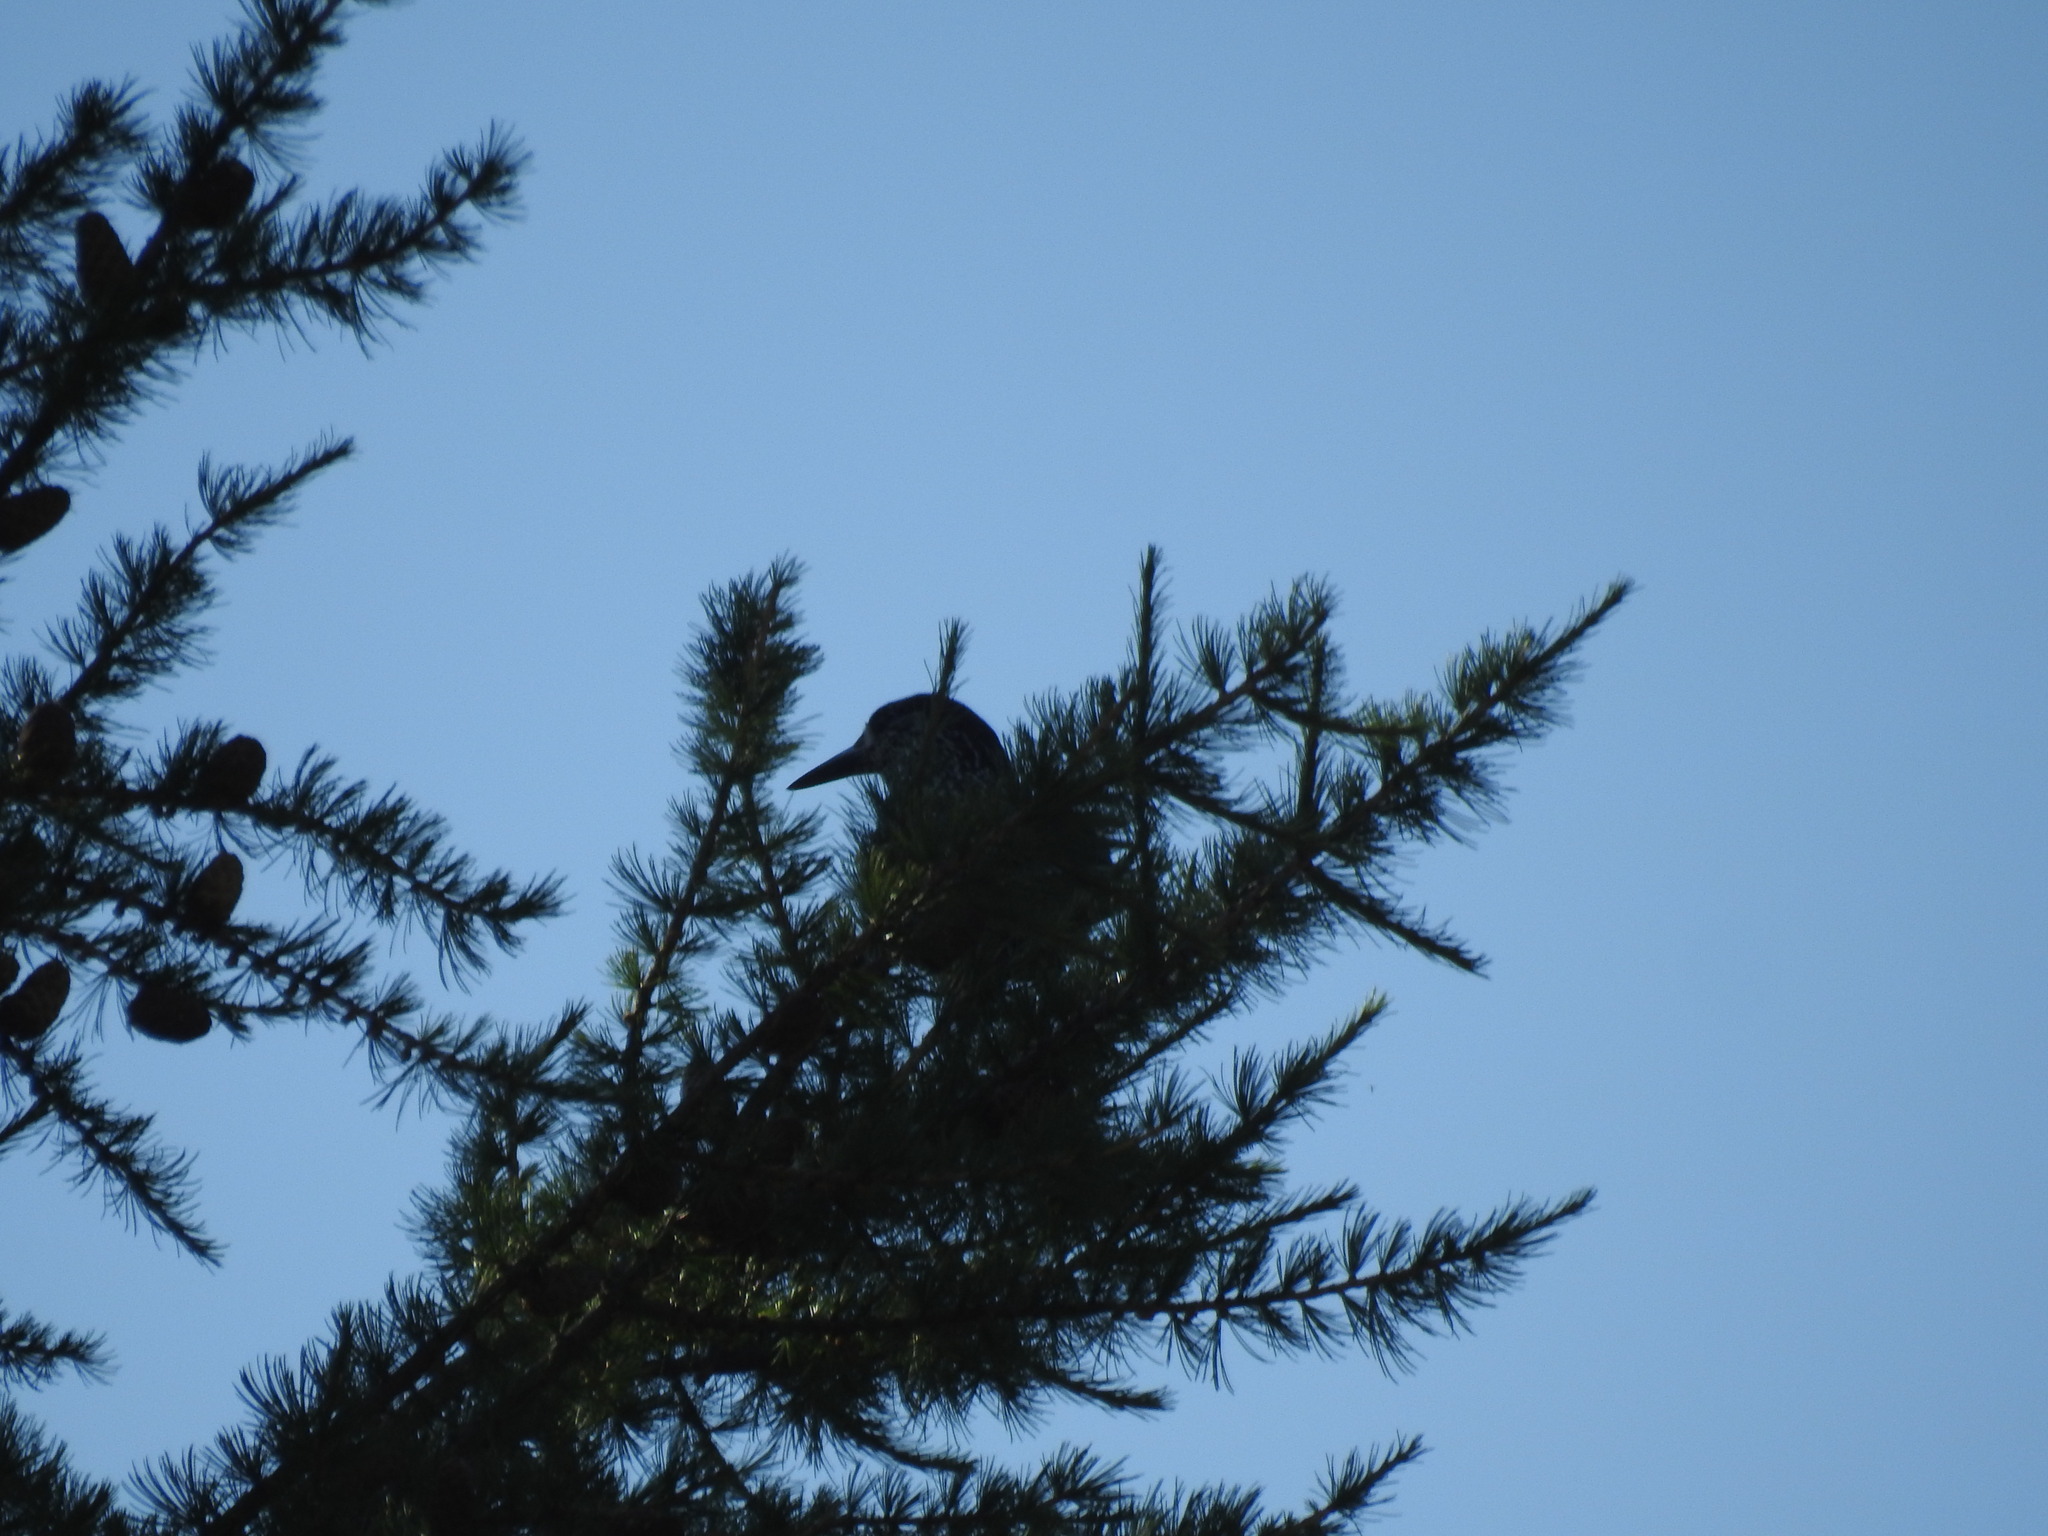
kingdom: Animalia
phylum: Chordata
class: Aves
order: Passeriformes
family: Corvidae
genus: Nucifraga
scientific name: Nucifraga caryocatactes
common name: Spotted nutcracker
